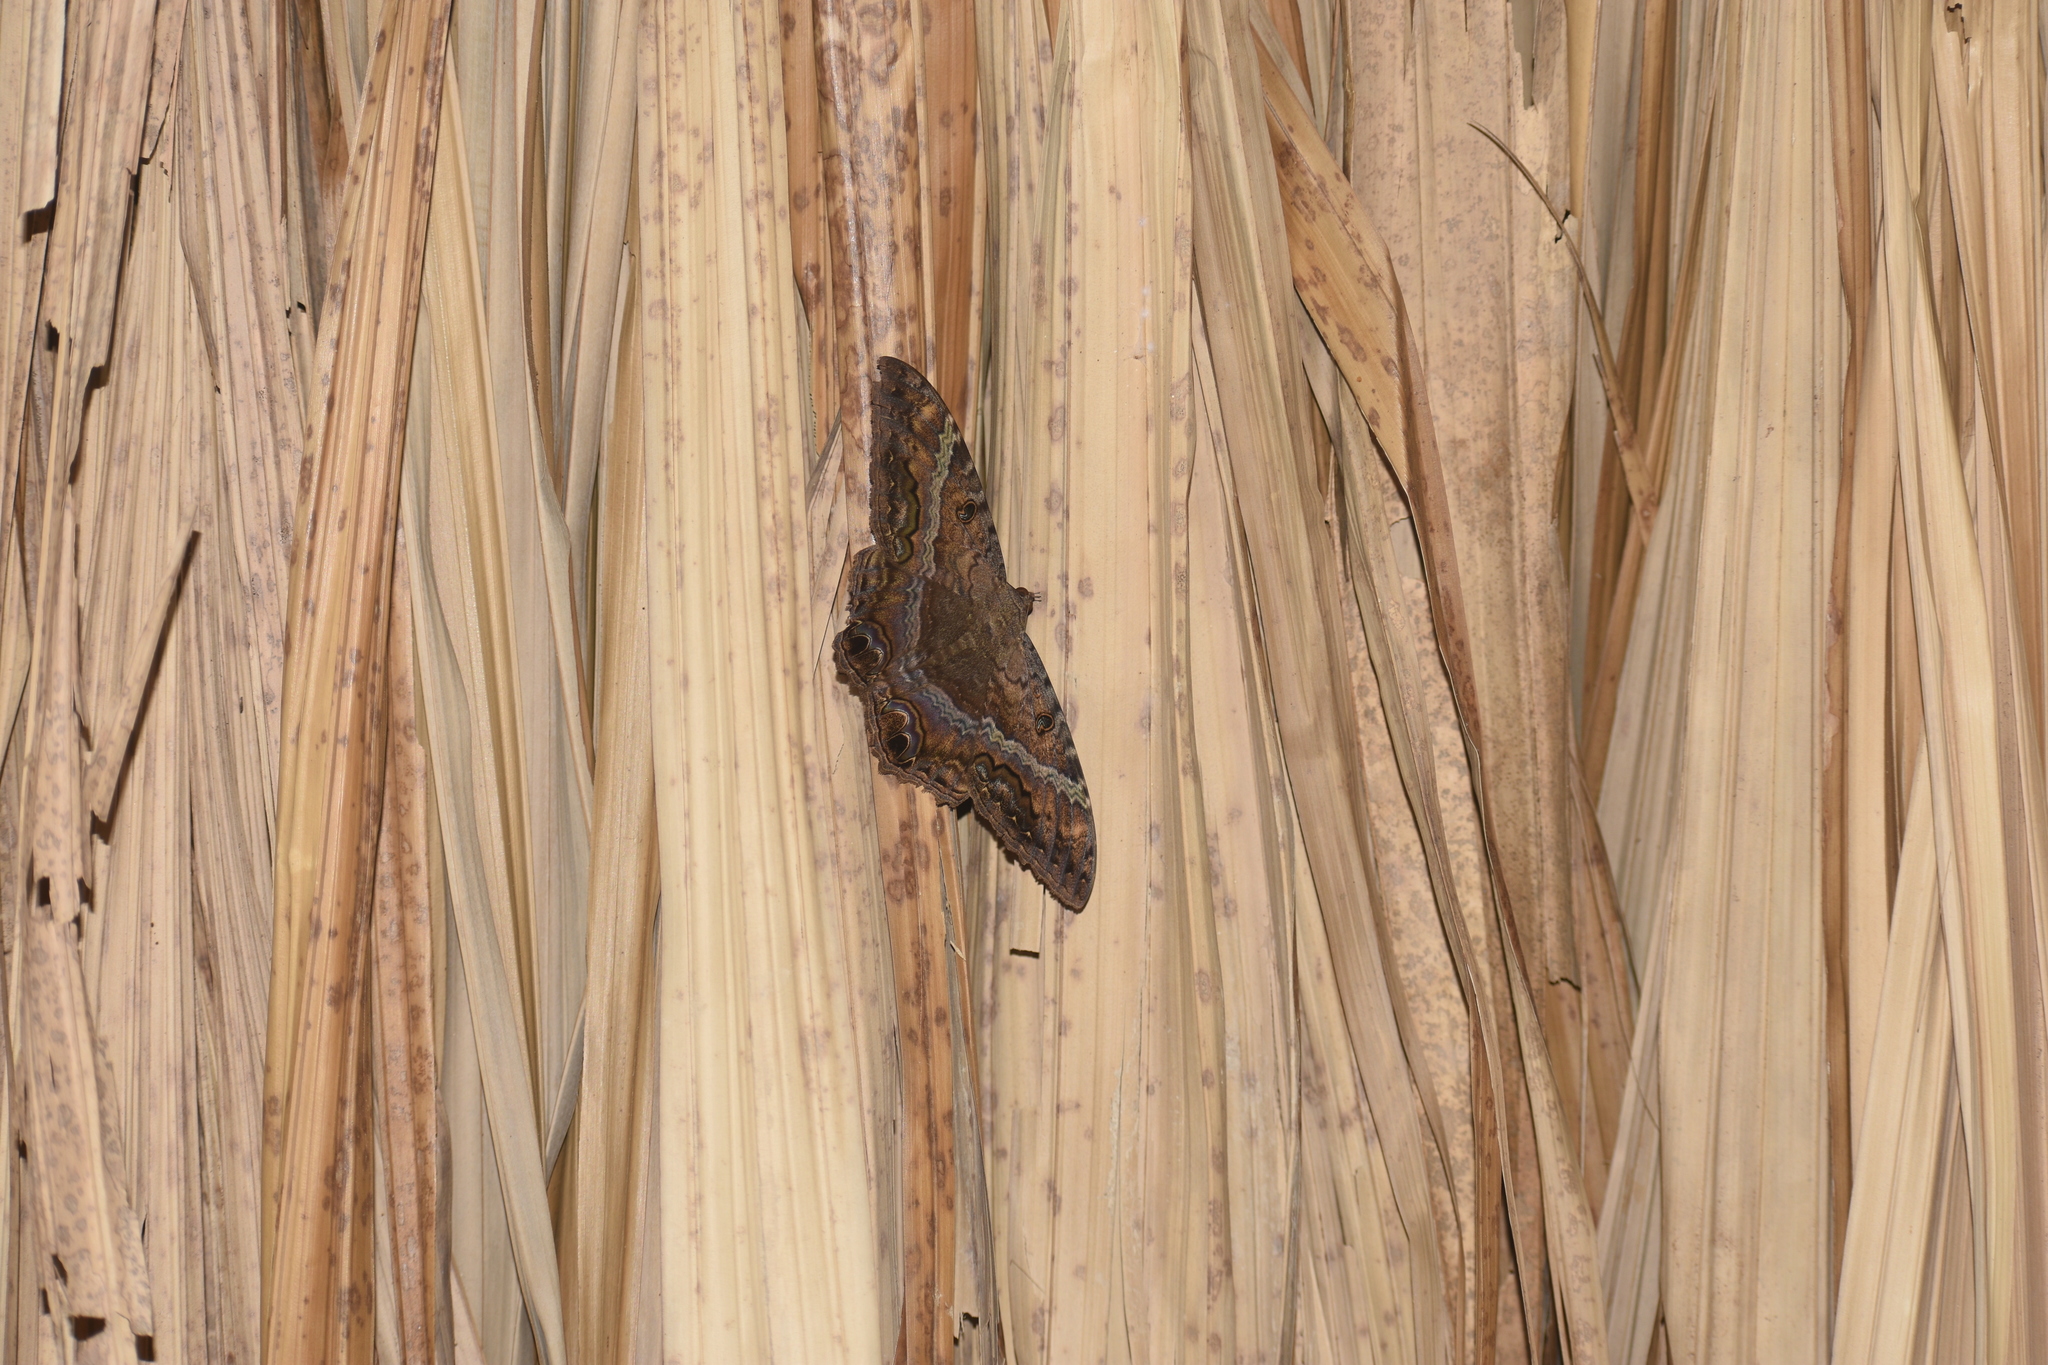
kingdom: Animalia
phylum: Arthropoda
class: Insecta
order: Lepidoptera
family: Erebidae
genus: Ascalapha
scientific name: Ascalapha odorata
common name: Black witch
